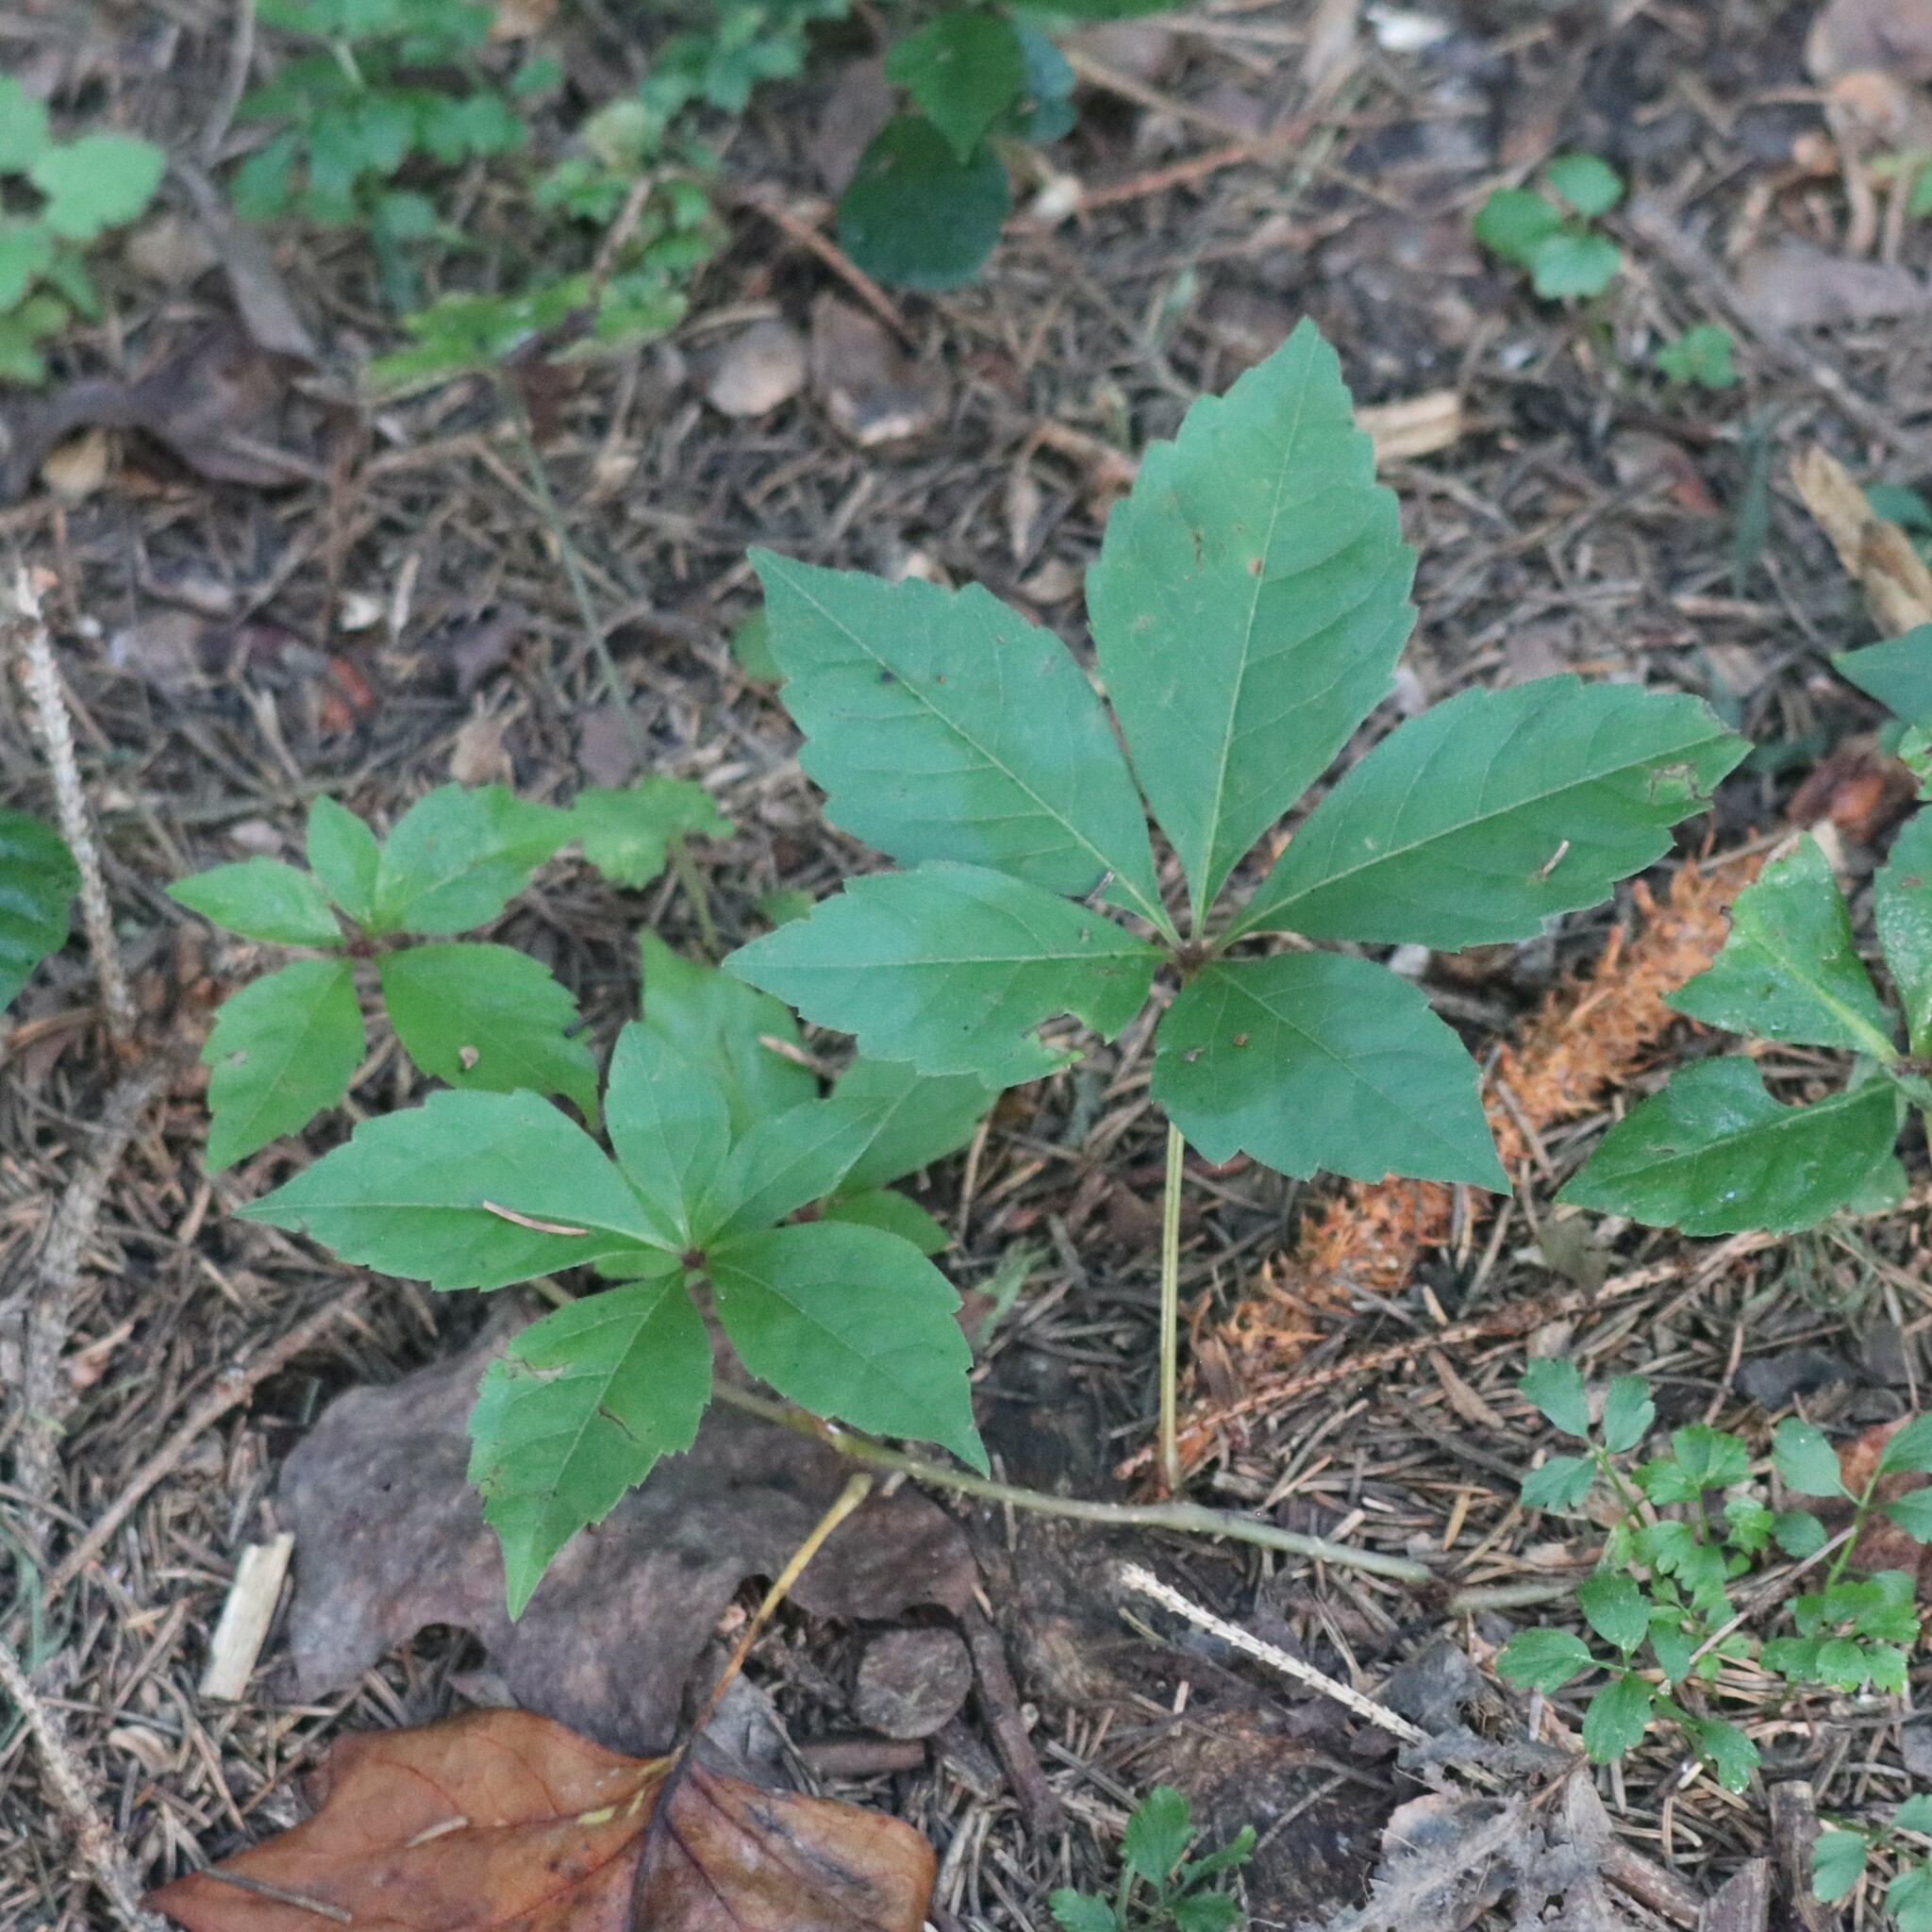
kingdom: Plantae
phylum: Tracheophyta
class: Magnoliopsida
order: Vitales
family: Vitaceae
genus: Parthenocissus
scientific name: Parthenocissus quinquefolia
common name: Virginia-creeper
